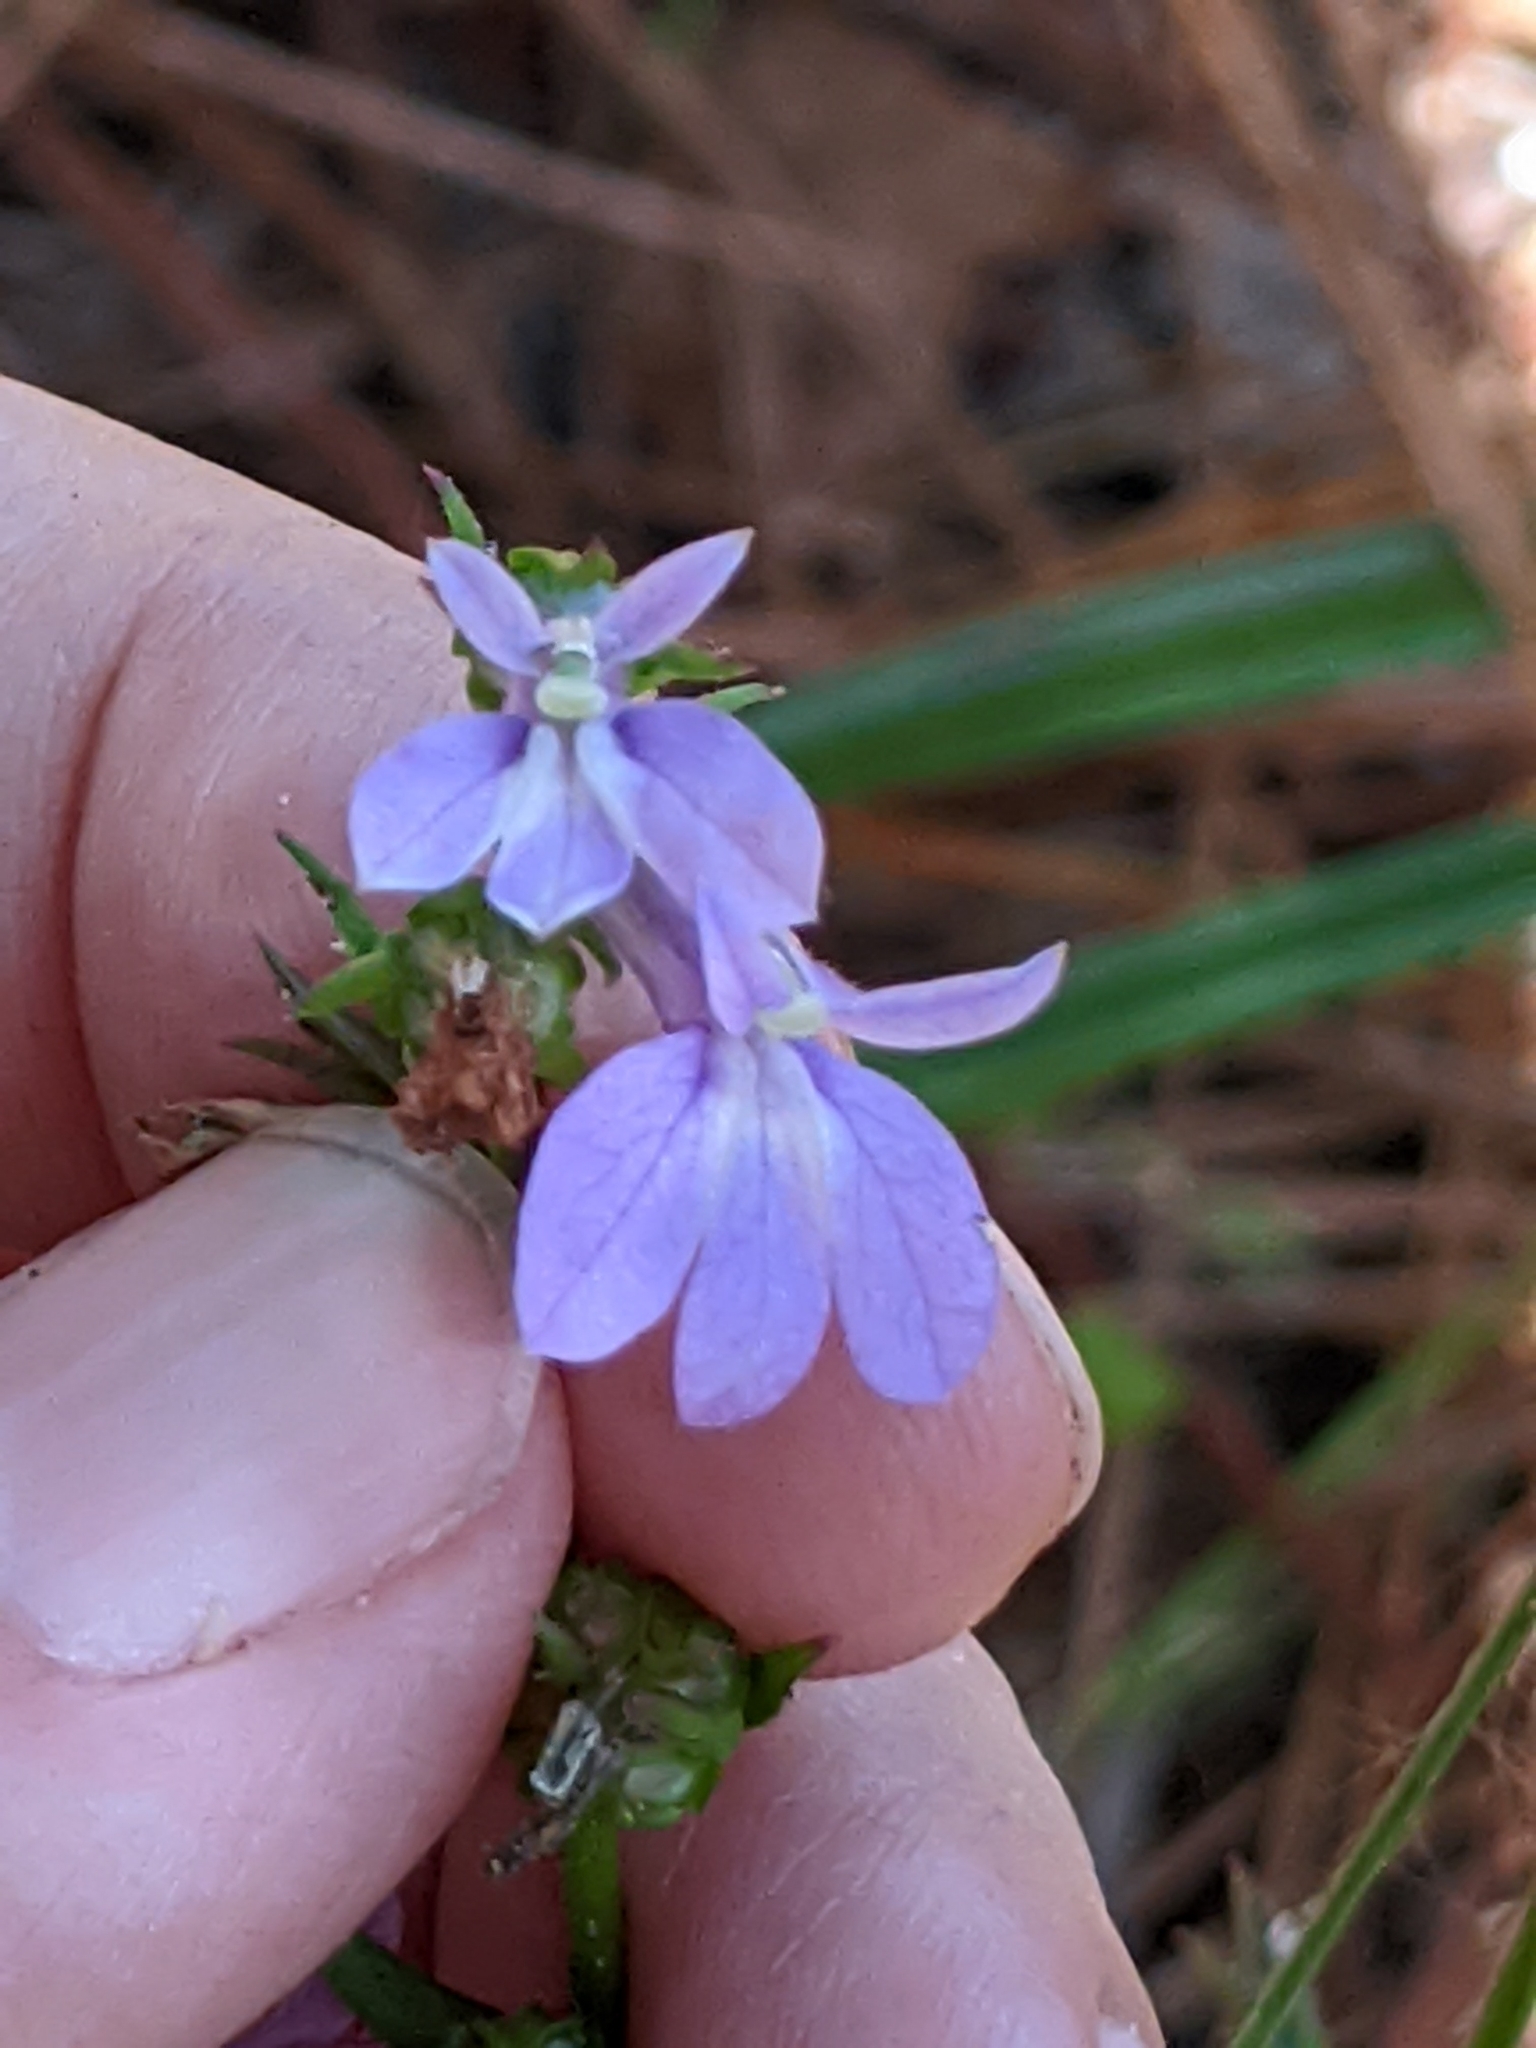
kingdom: Plantae
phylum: Tracheophyta
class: Magnoliopsida
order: Asterales
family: Campanulaceae
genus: Lobelia
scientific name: Lobelia puberula
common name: Purple dewdrop
